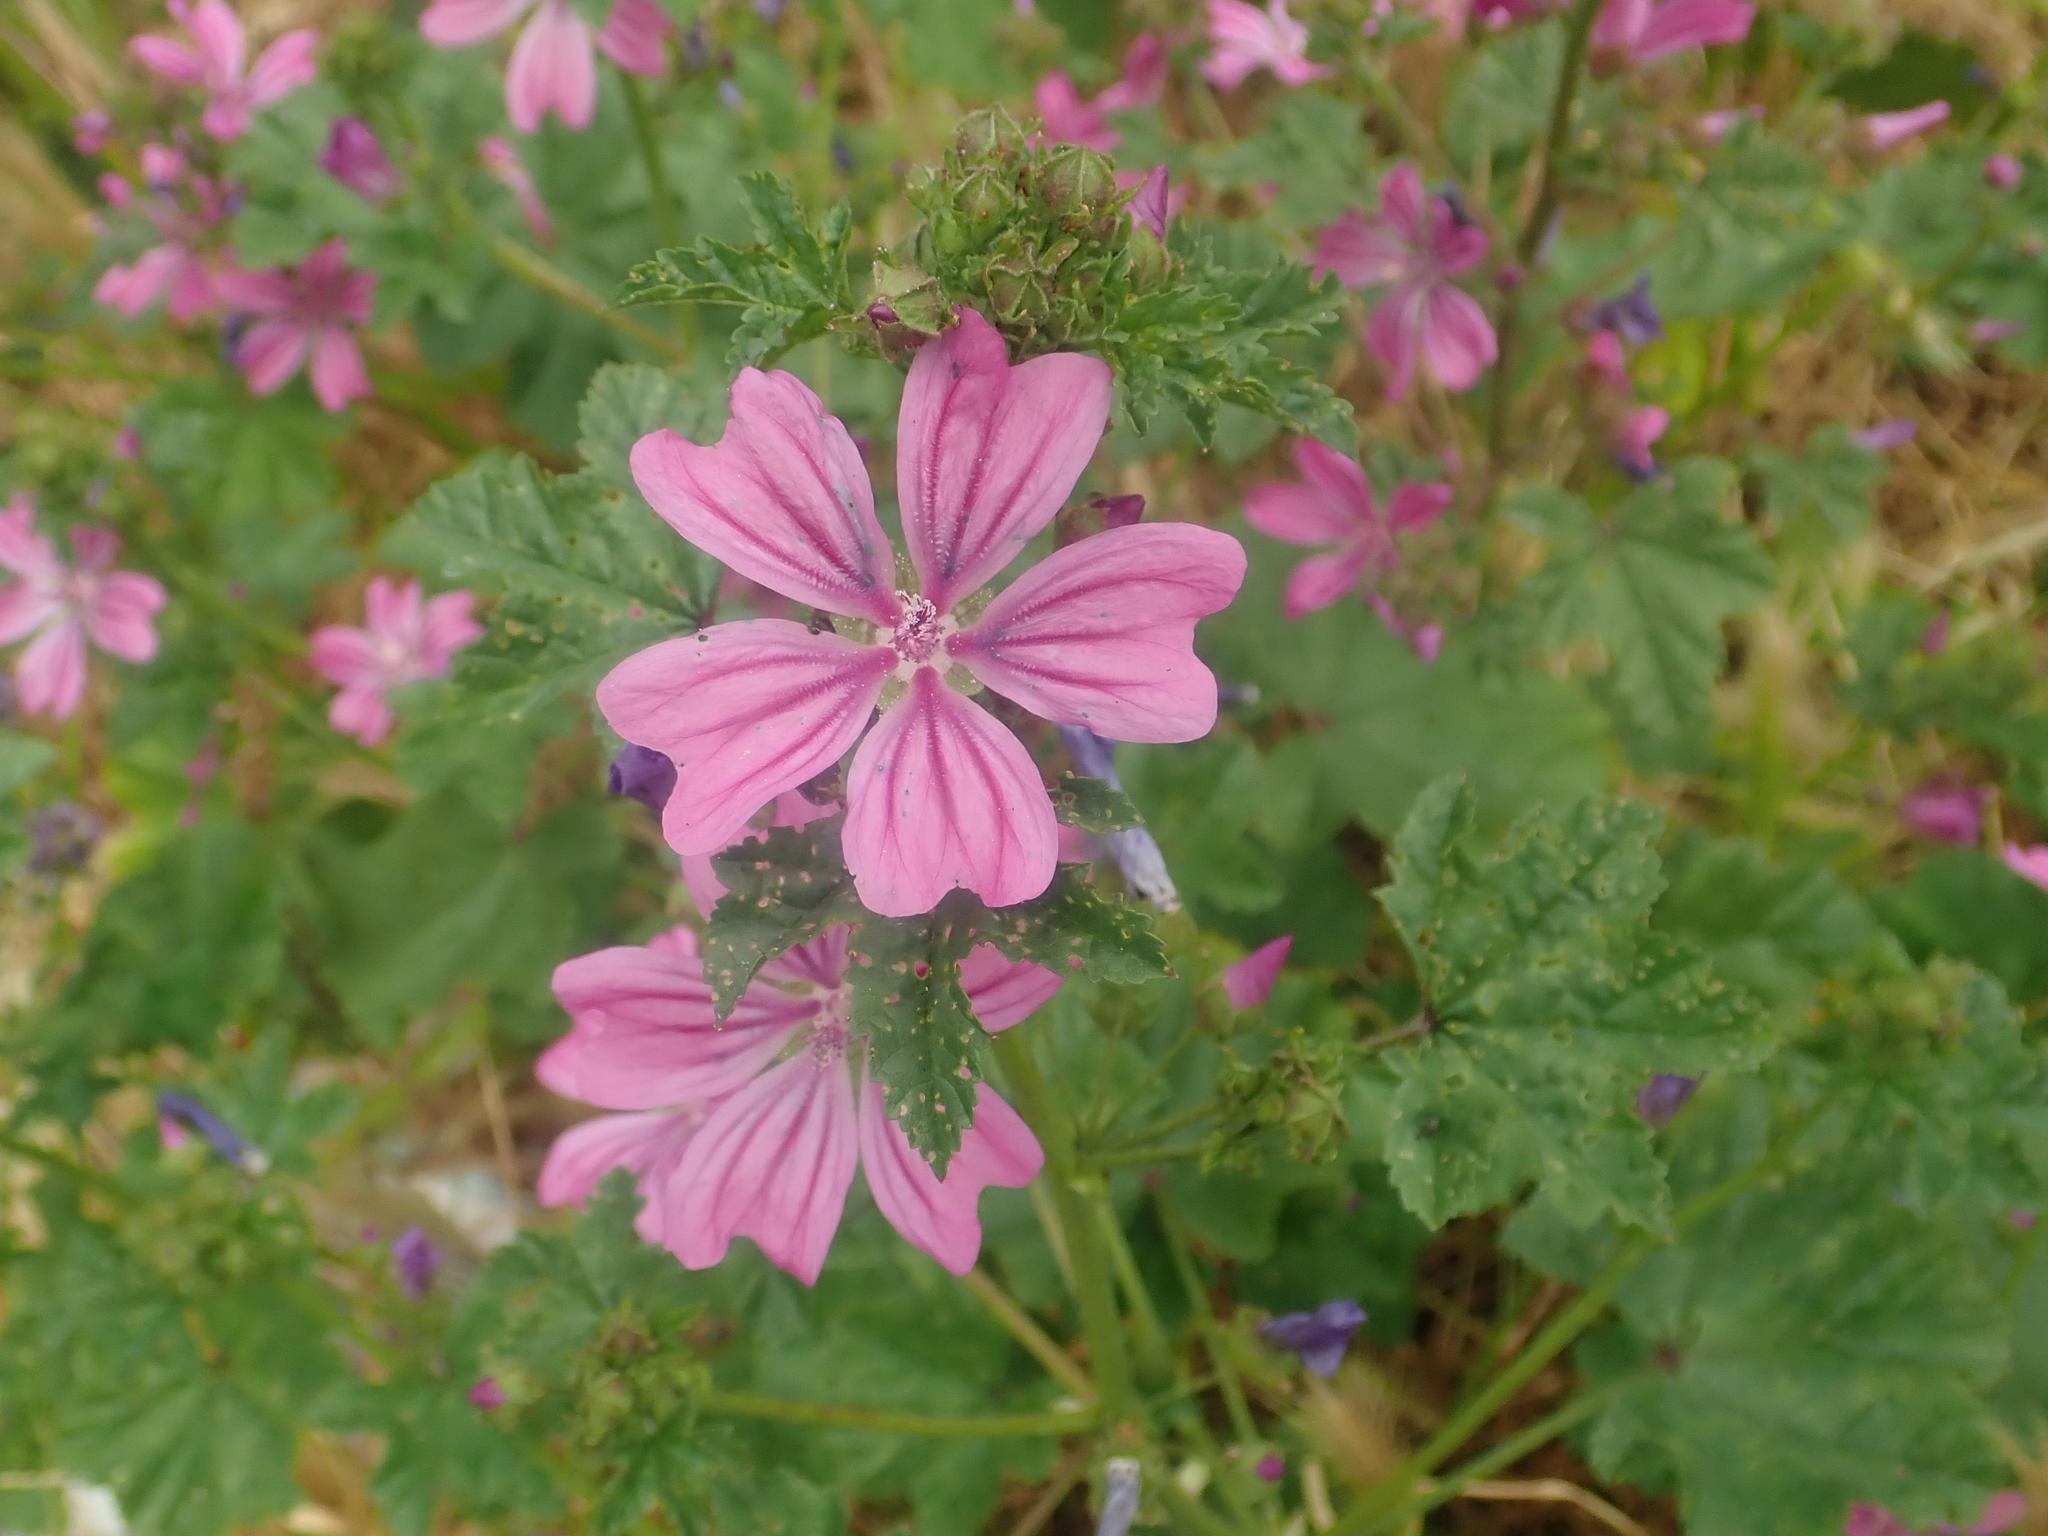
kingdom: Plantae
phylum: Tracheophyta
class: Magnoliopsida
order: Malvales
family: Malvaceae
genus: Malva
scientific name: Malva sylvestris
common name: Common mallow
